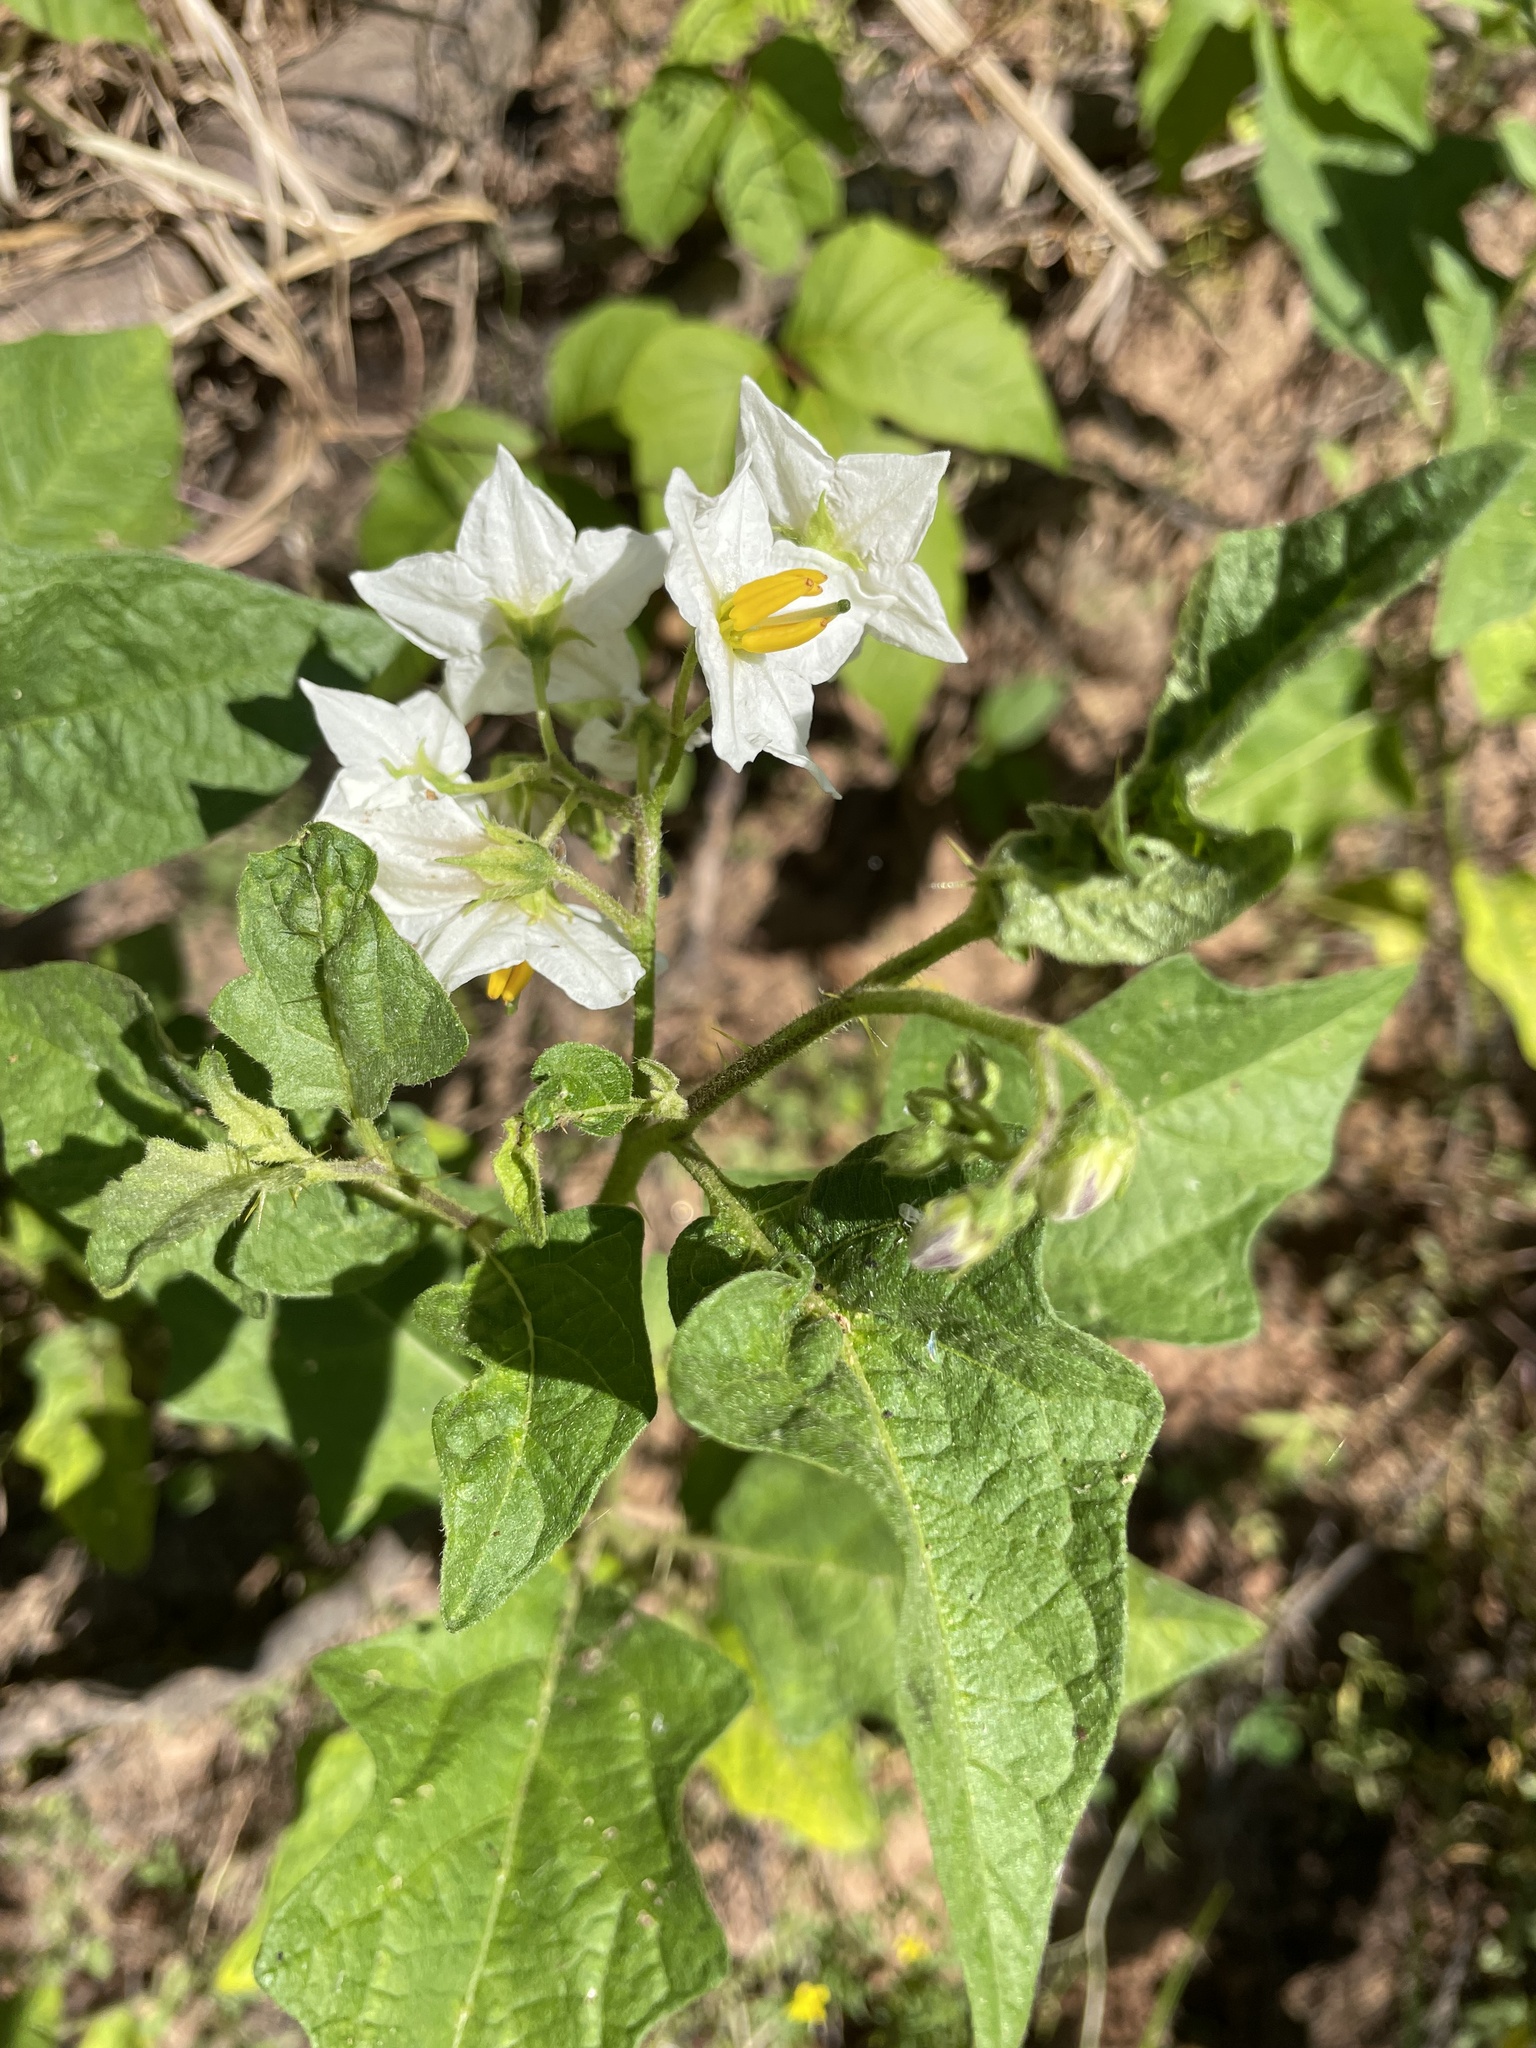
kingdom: Plantae
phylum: Tracheophyta
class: Magnoliopsida
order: Solanales
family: Solanaceae
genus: Solanum
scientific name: Solanum carolinense
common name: Horse-nettle
